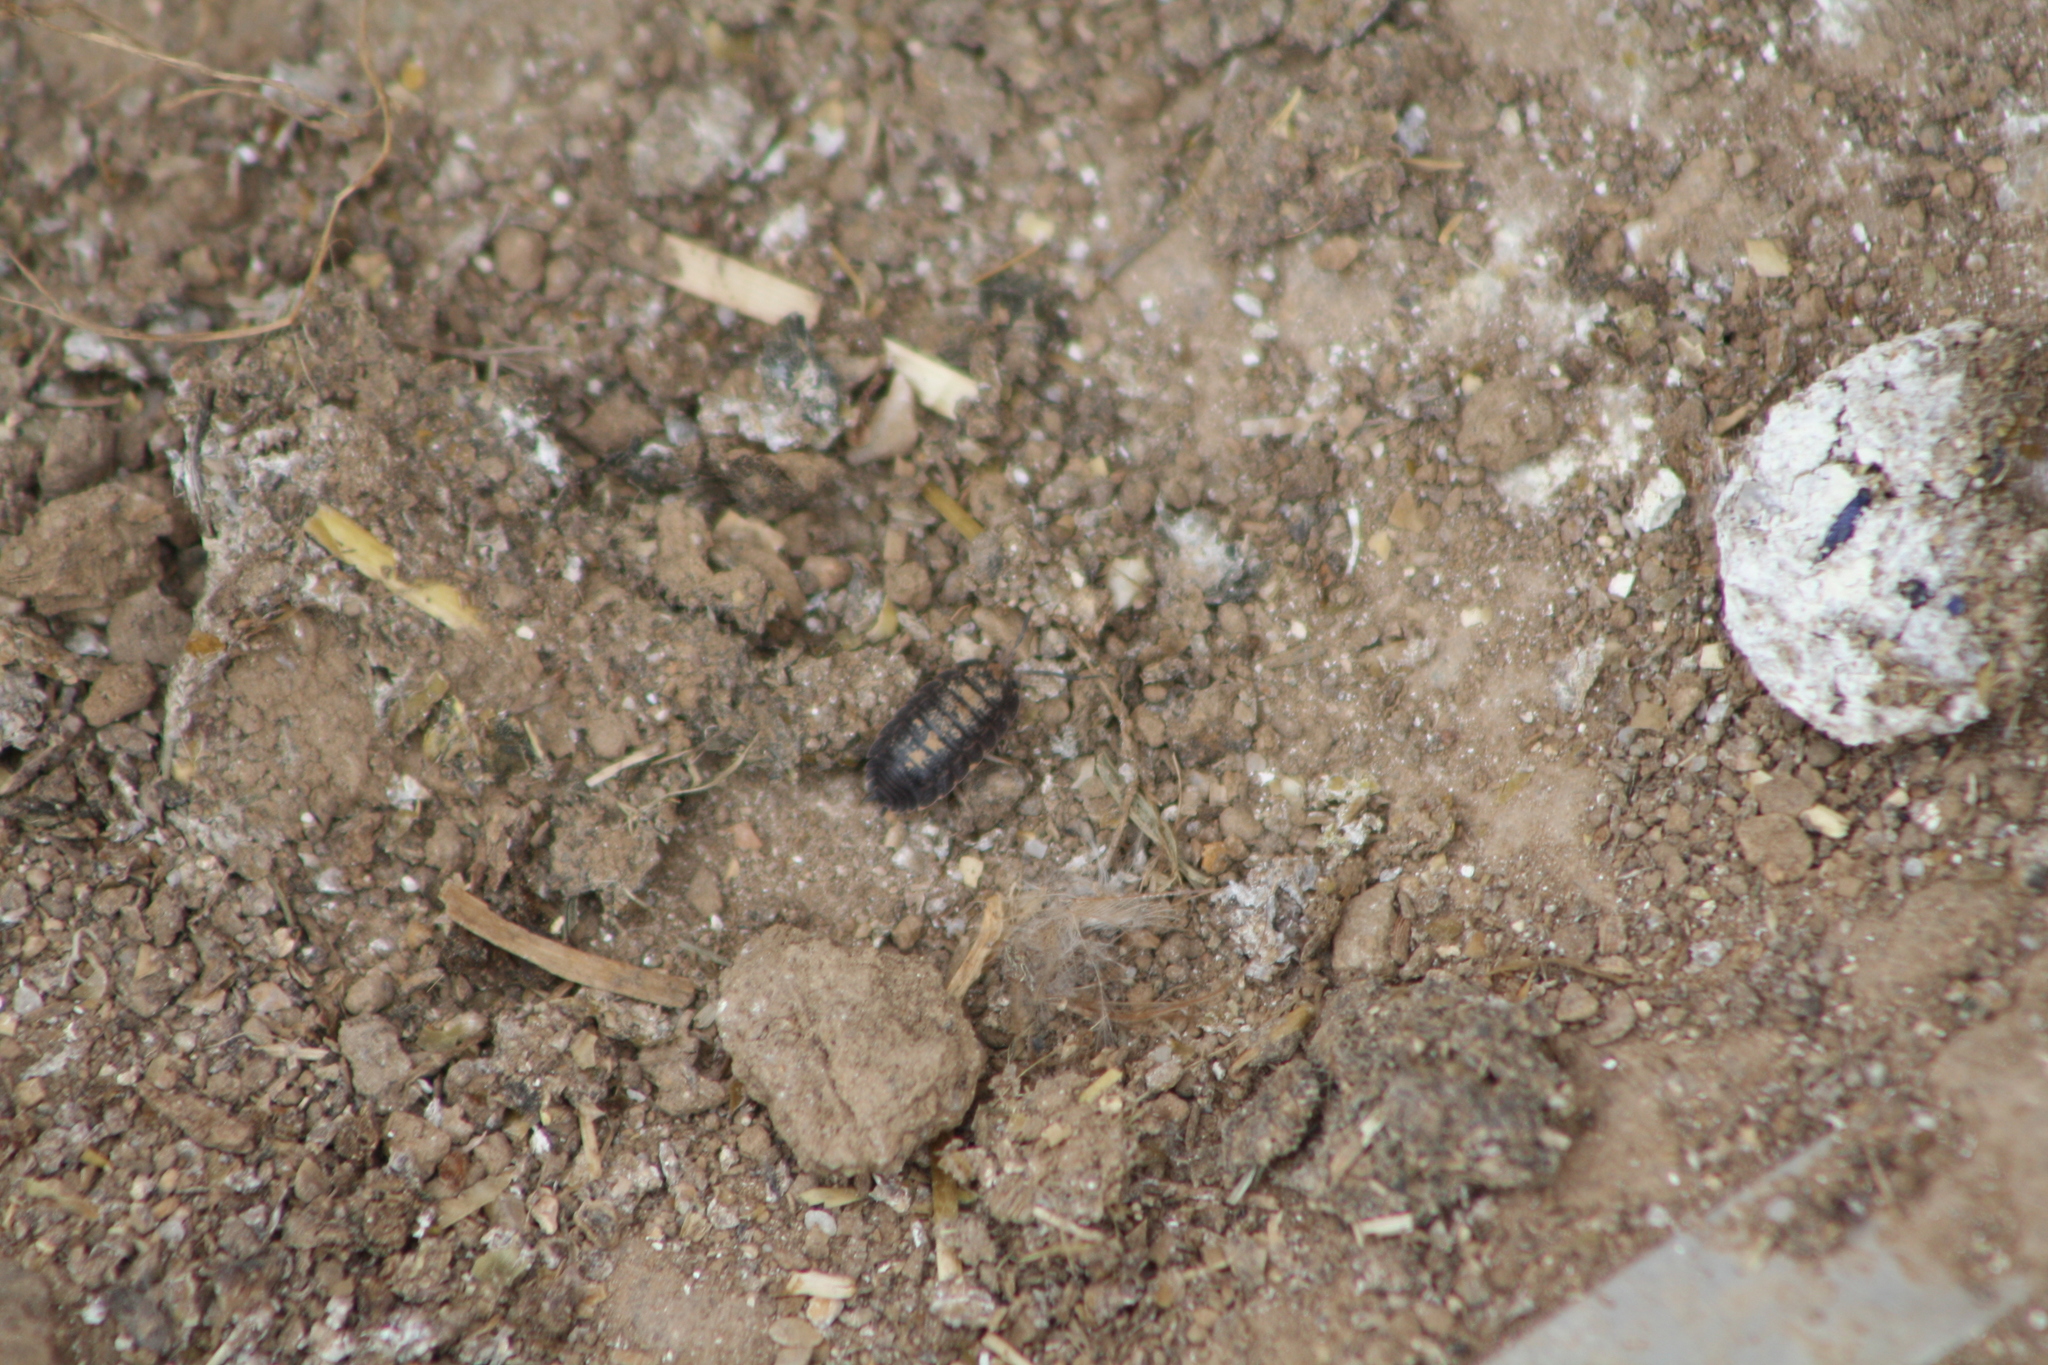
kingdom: Animalia
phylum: Arthropoda
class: Malacostraca
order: Isopoda
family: Trachelipodidae
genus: Trachelipus
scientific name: Trachelipus aegaeus
